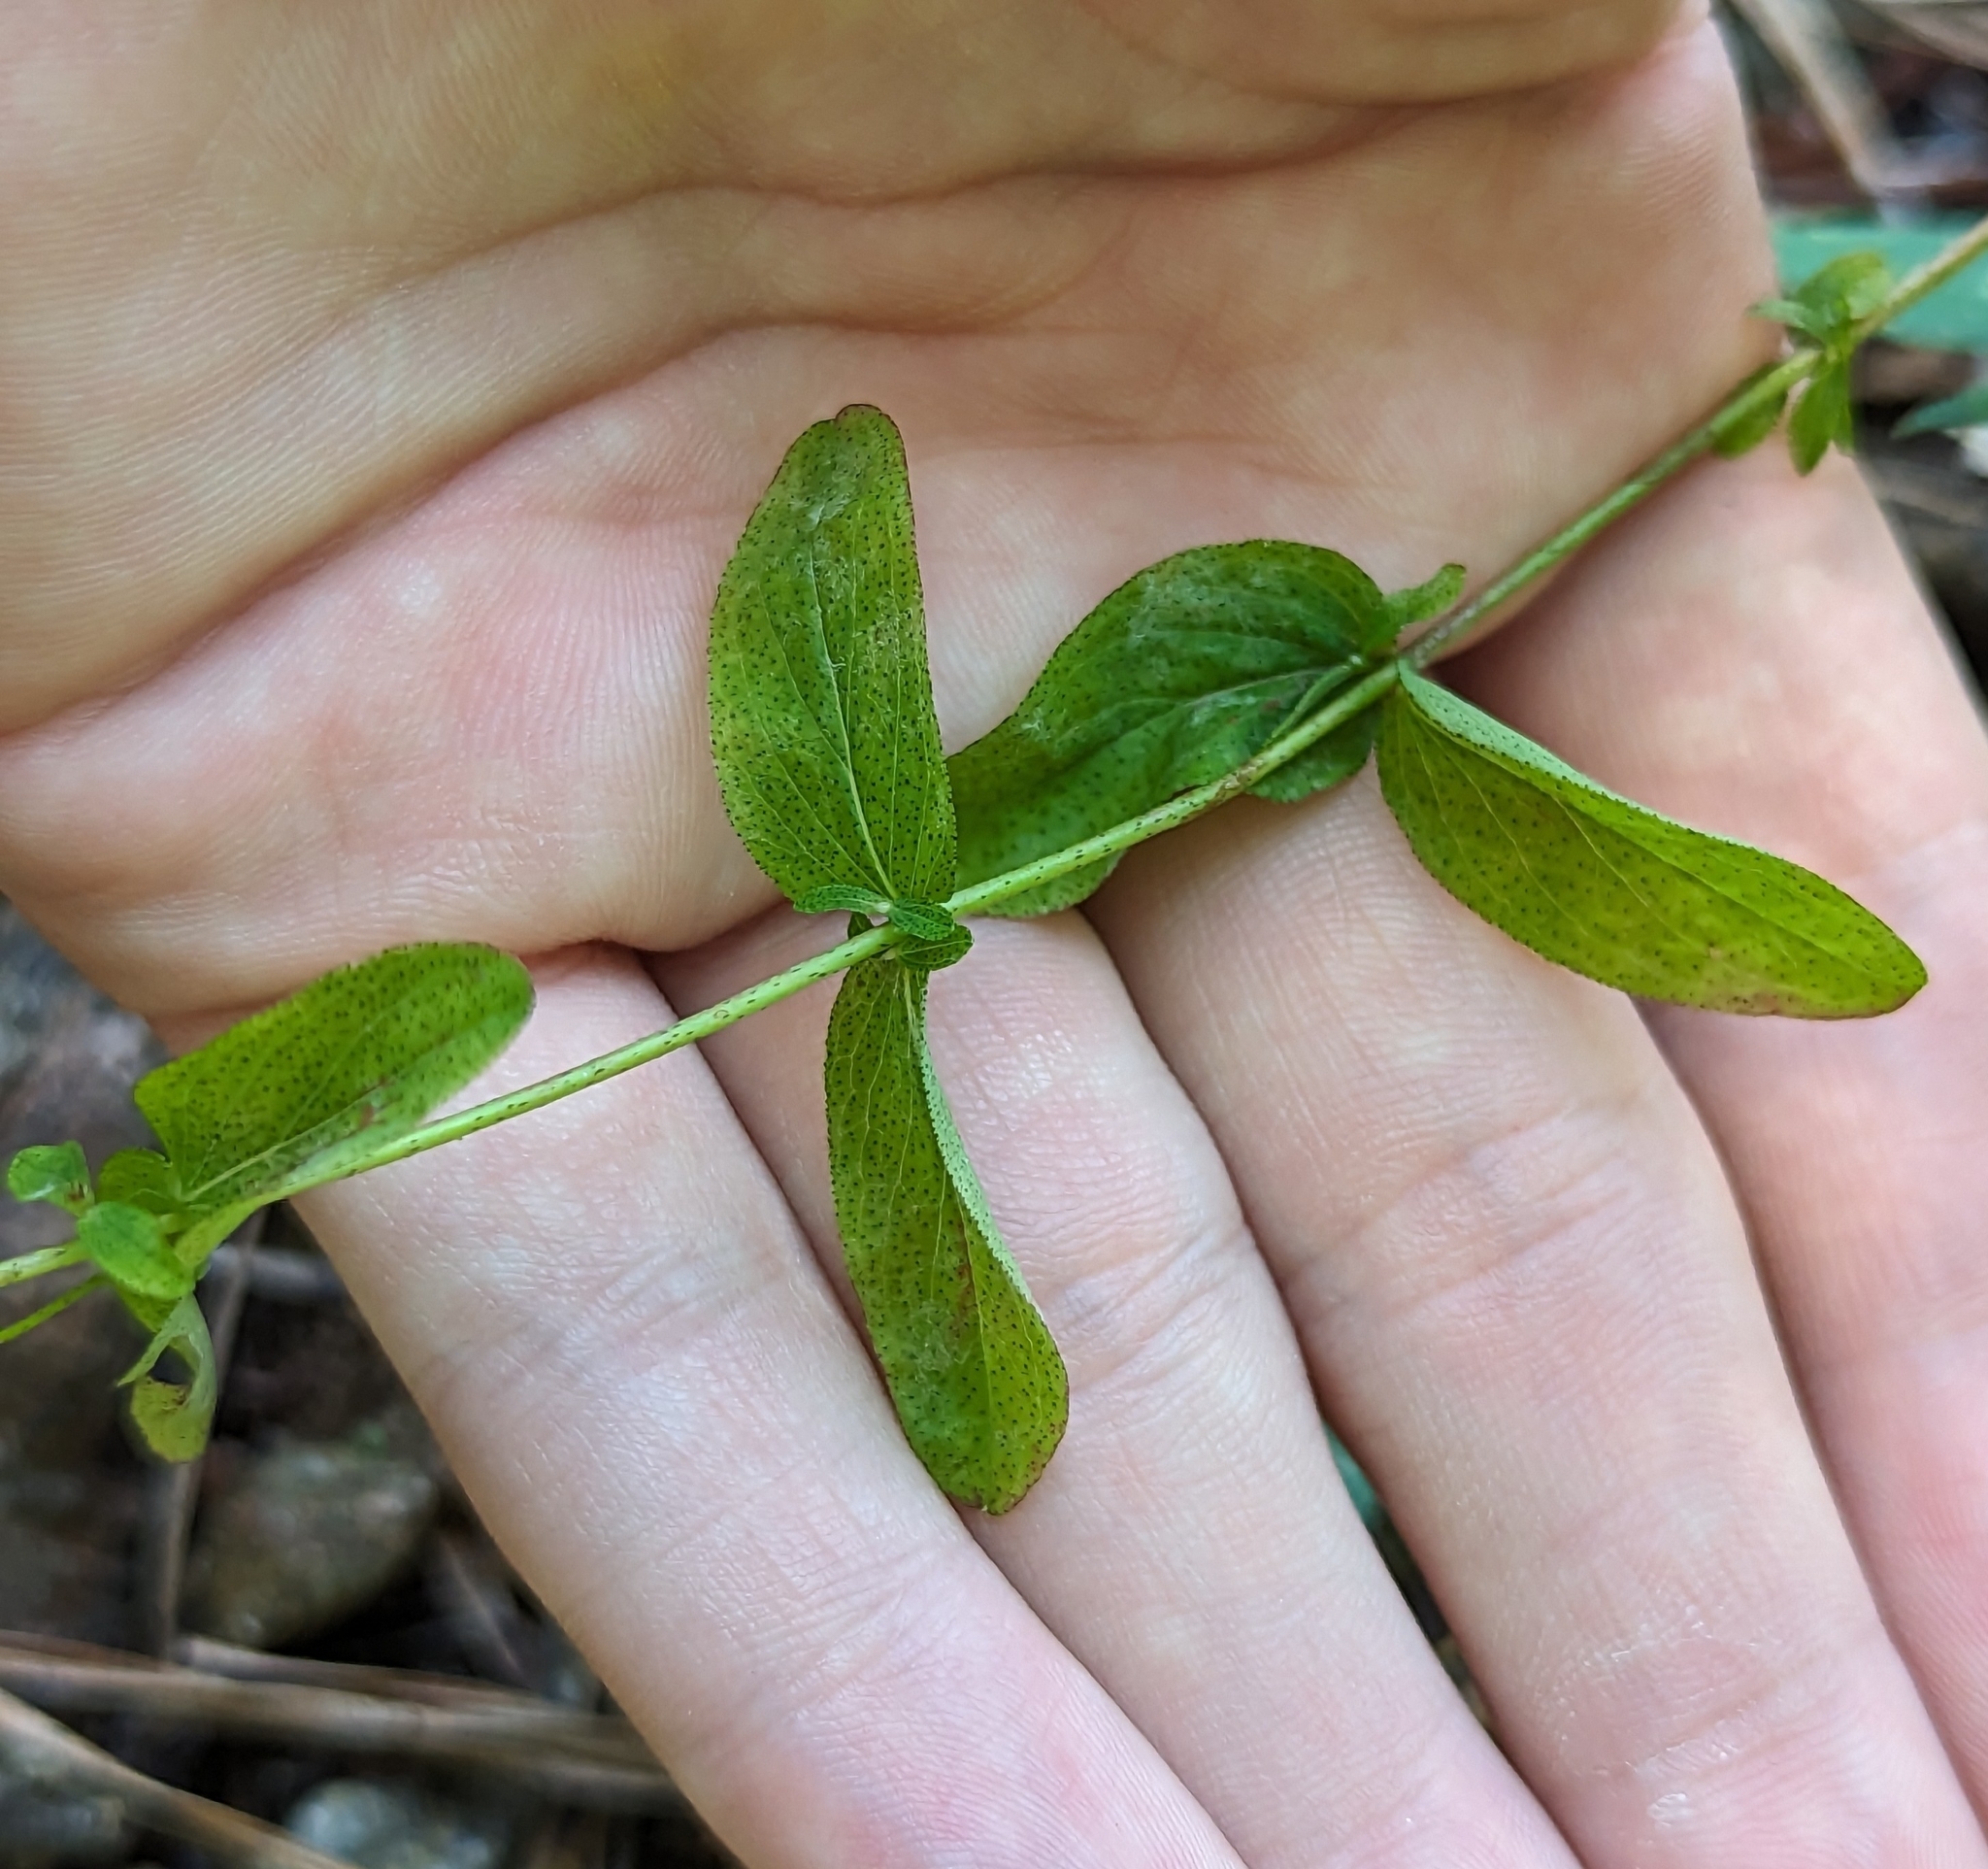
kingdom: Plantae
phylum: Tracheophyta
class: Magnoliopsida
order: Malpighiales
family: Hypericaceae
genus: Hypericum
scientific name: Hypericum punctatum
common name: Spotted st. john's-wort
